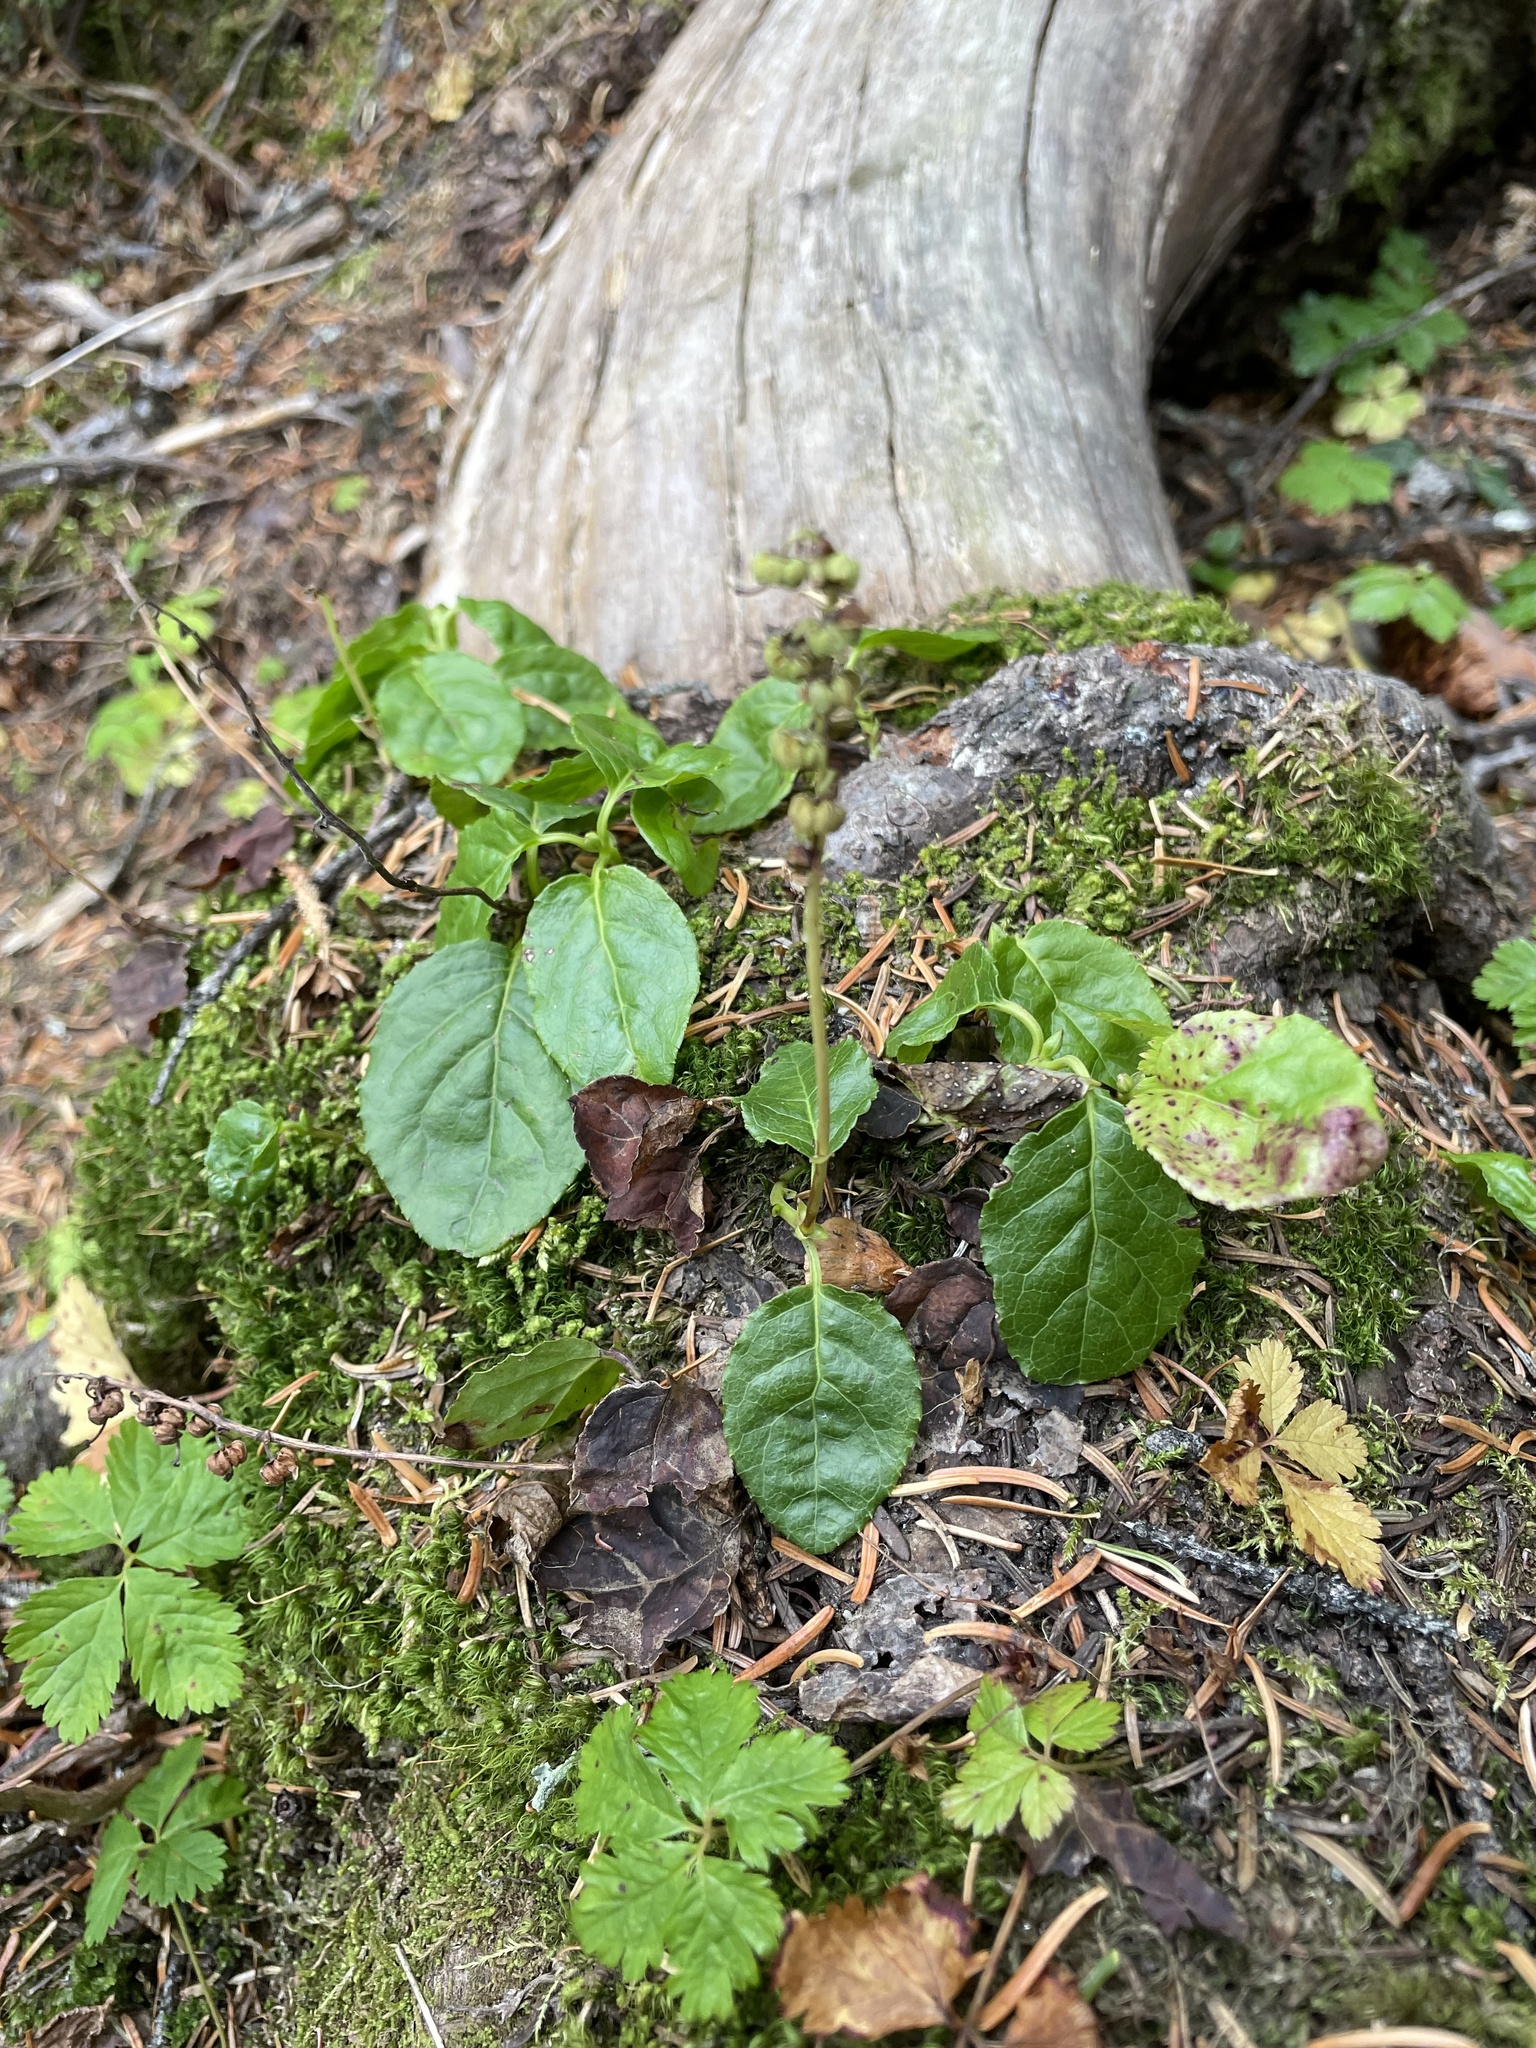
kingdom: Plantae
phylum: Tracheophyta
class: Magnoliopsida
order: Ericales
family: Ericaceae
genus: Orthilia
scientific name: Orthilia secunda
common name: One-sided orthilia
